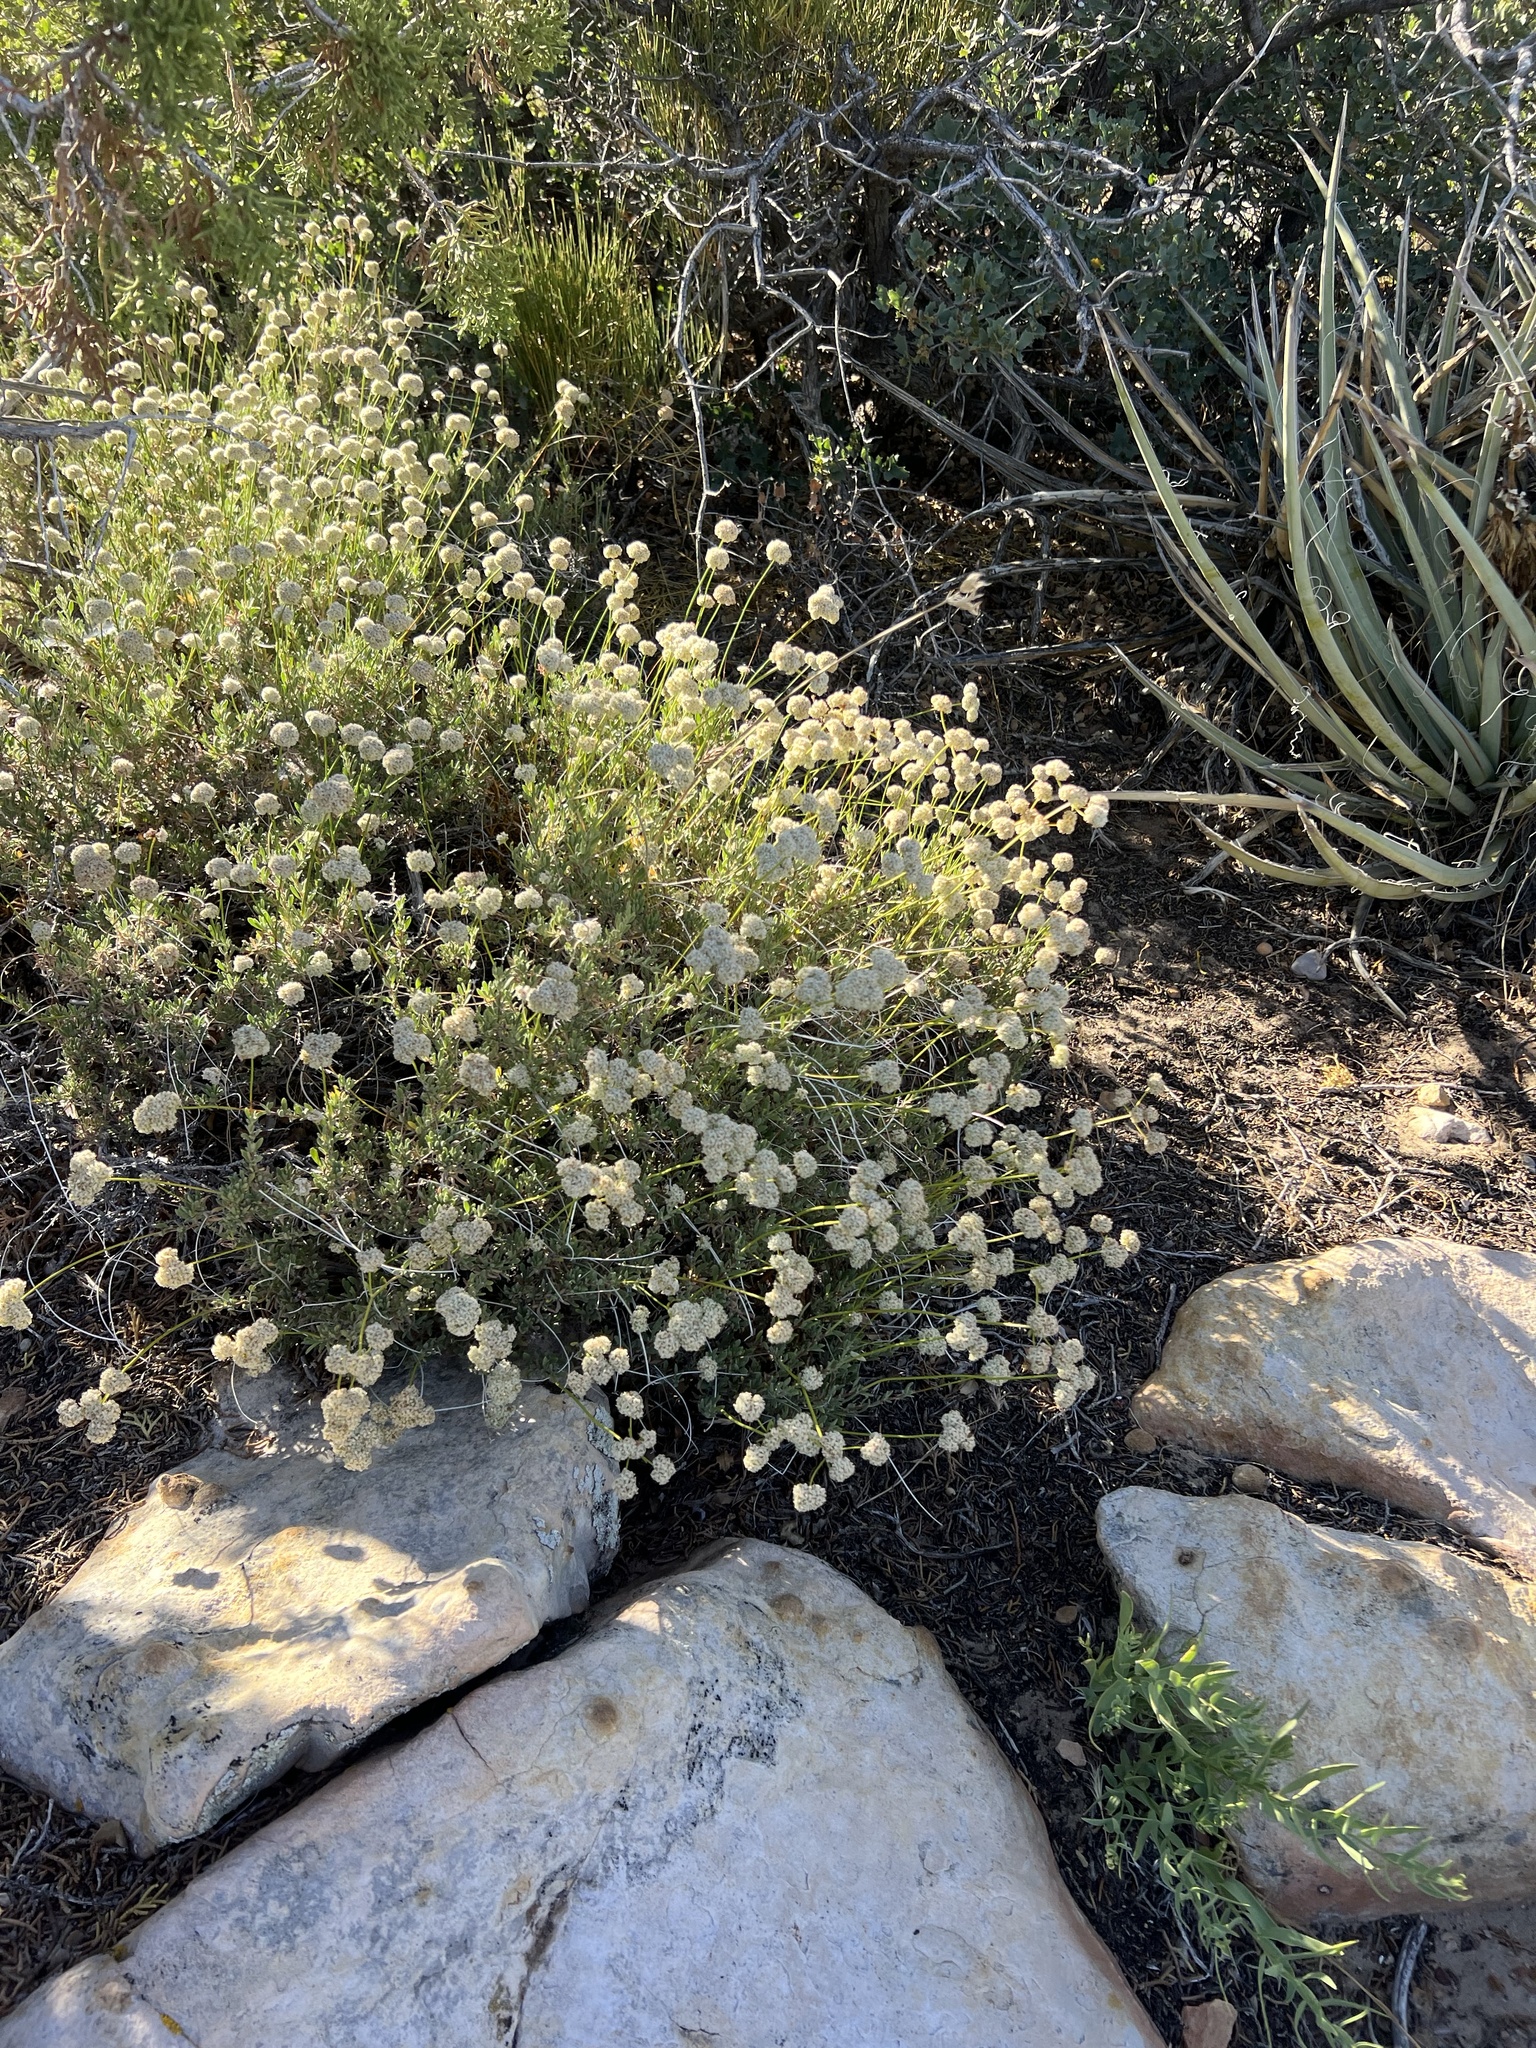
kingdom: Plantae
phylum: Tracheophyta
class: Magnoliopsida
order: Caryophyllales
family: Polygonaceae
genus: Eriogonum
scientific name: Eriogonum fasciculatum
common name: California wild buckwheat
